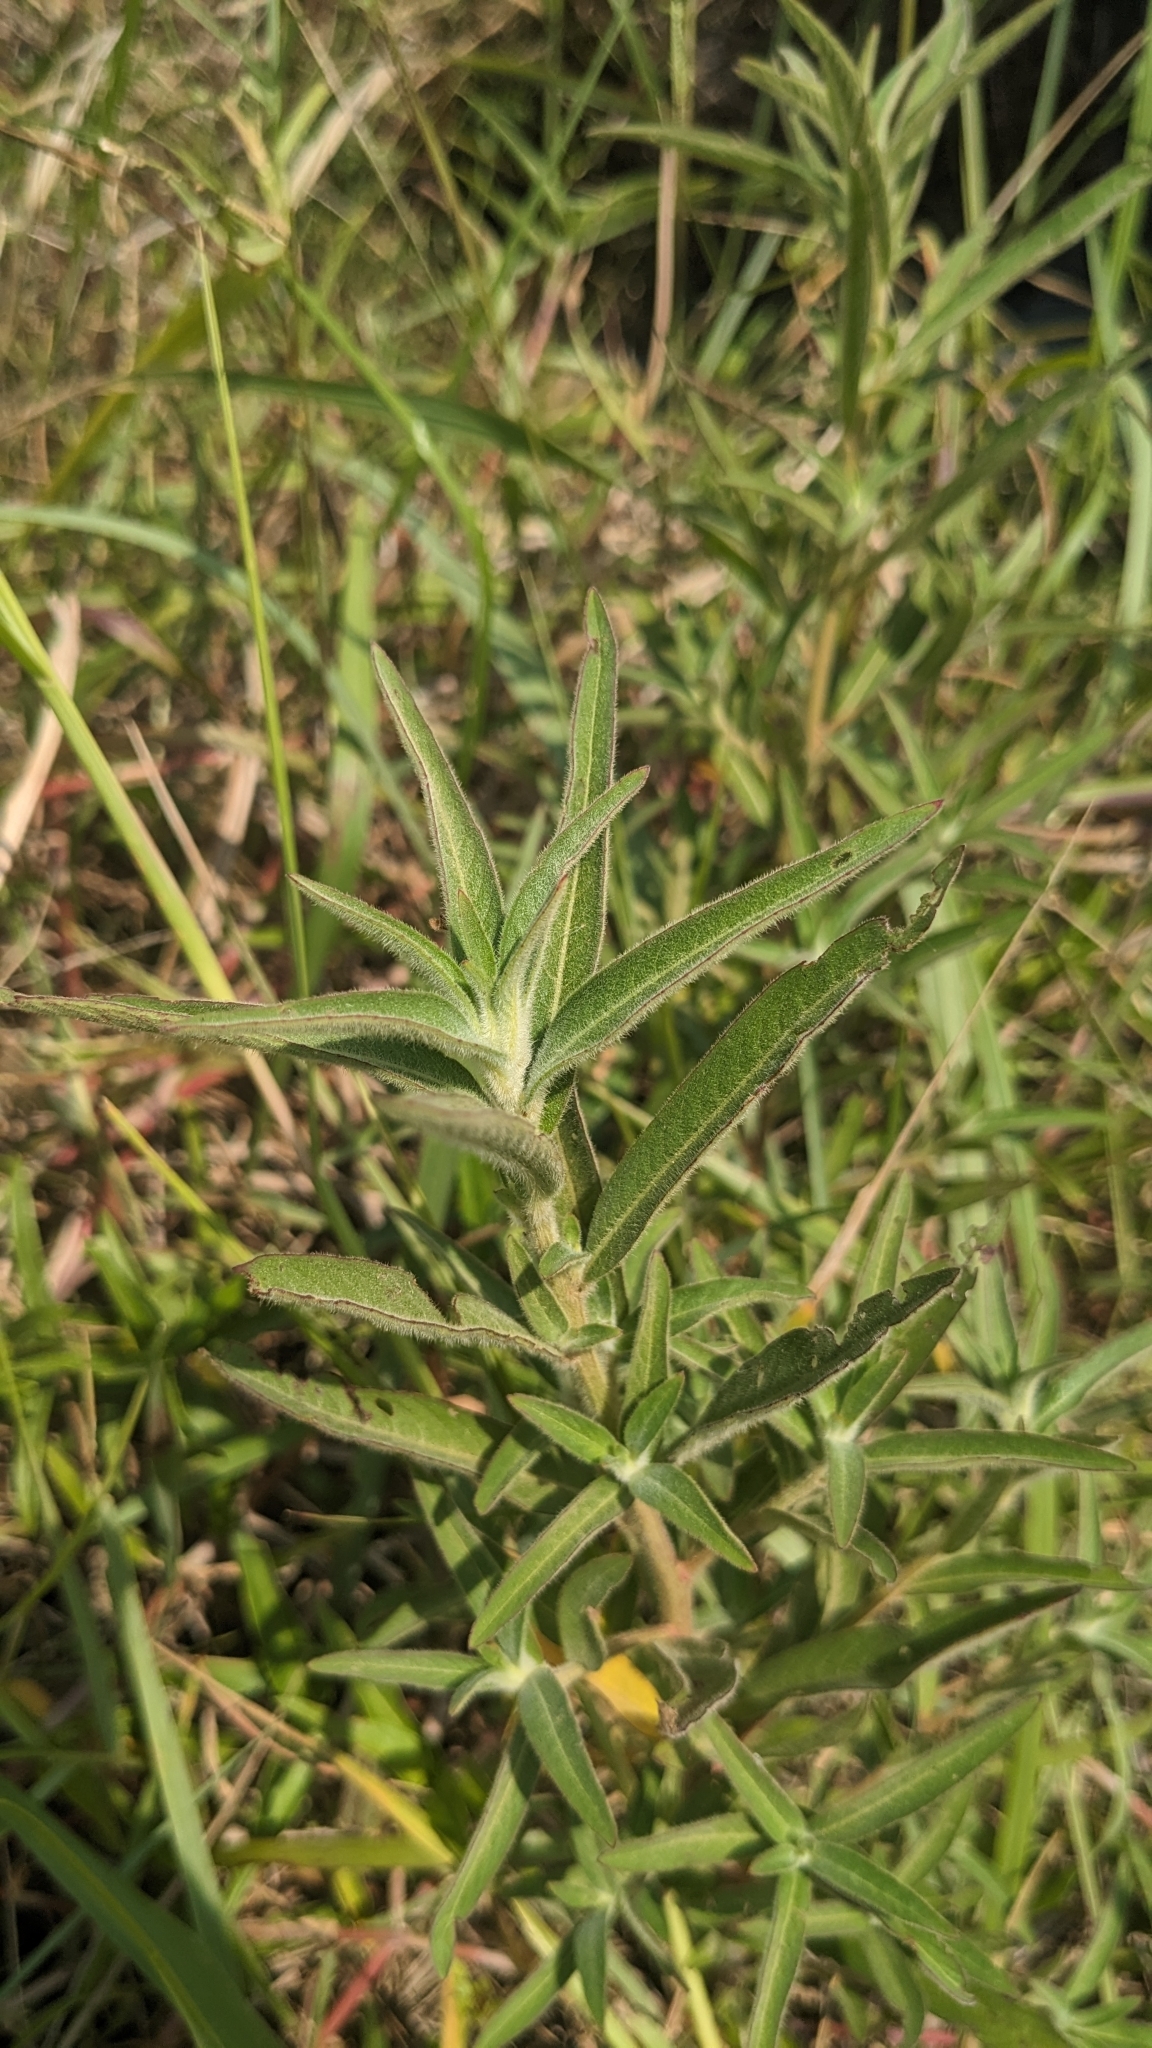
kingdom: Plantae
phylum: Tracheophyta
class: Magnoliopsida
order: Myrtales
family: Onagraceae
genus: Ludwigia
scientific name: Ludwigia octovalvis
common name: Water-primrose
